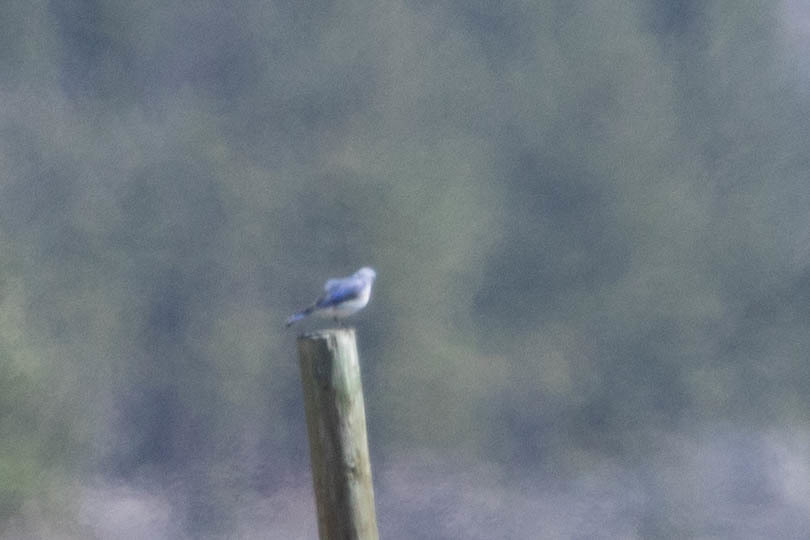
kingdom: Animalia
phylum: Chordata
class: Aves
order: Passeriformes
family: Turdidae
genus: Sialia
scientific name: Sialia currucoides
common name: Mountain bluebird
